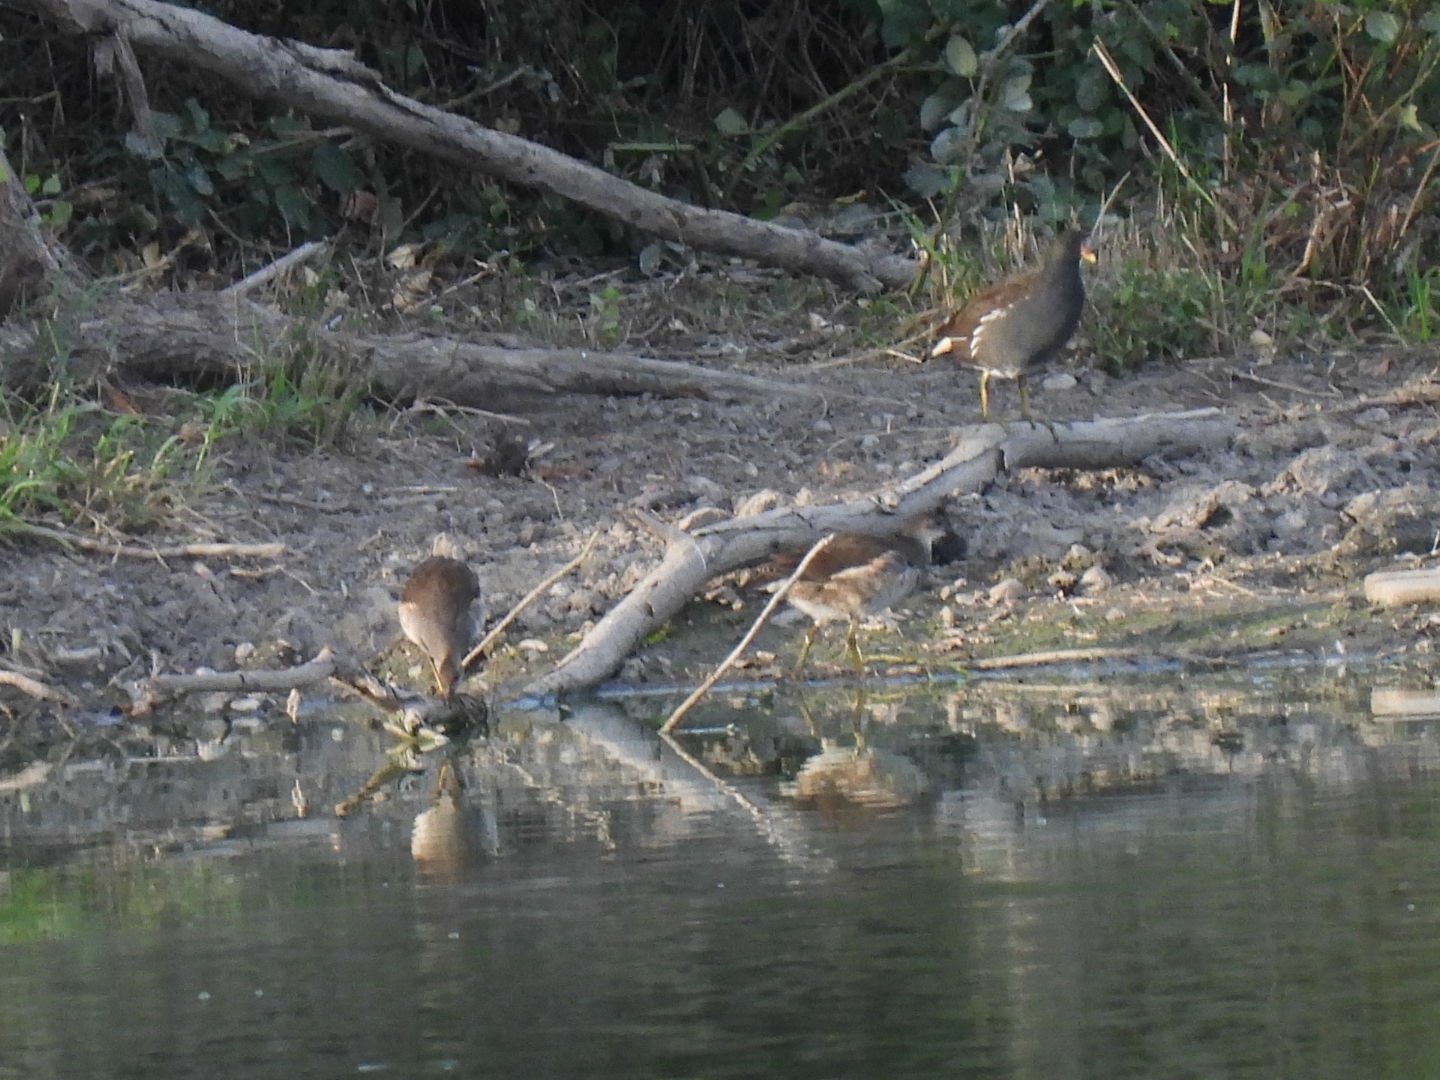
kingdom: Animalia
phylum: Chordata
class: Aves
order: Gruiformes
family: Rallidae
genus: Gallinula
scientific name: Gallinula chloropus
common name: Common moorhen
